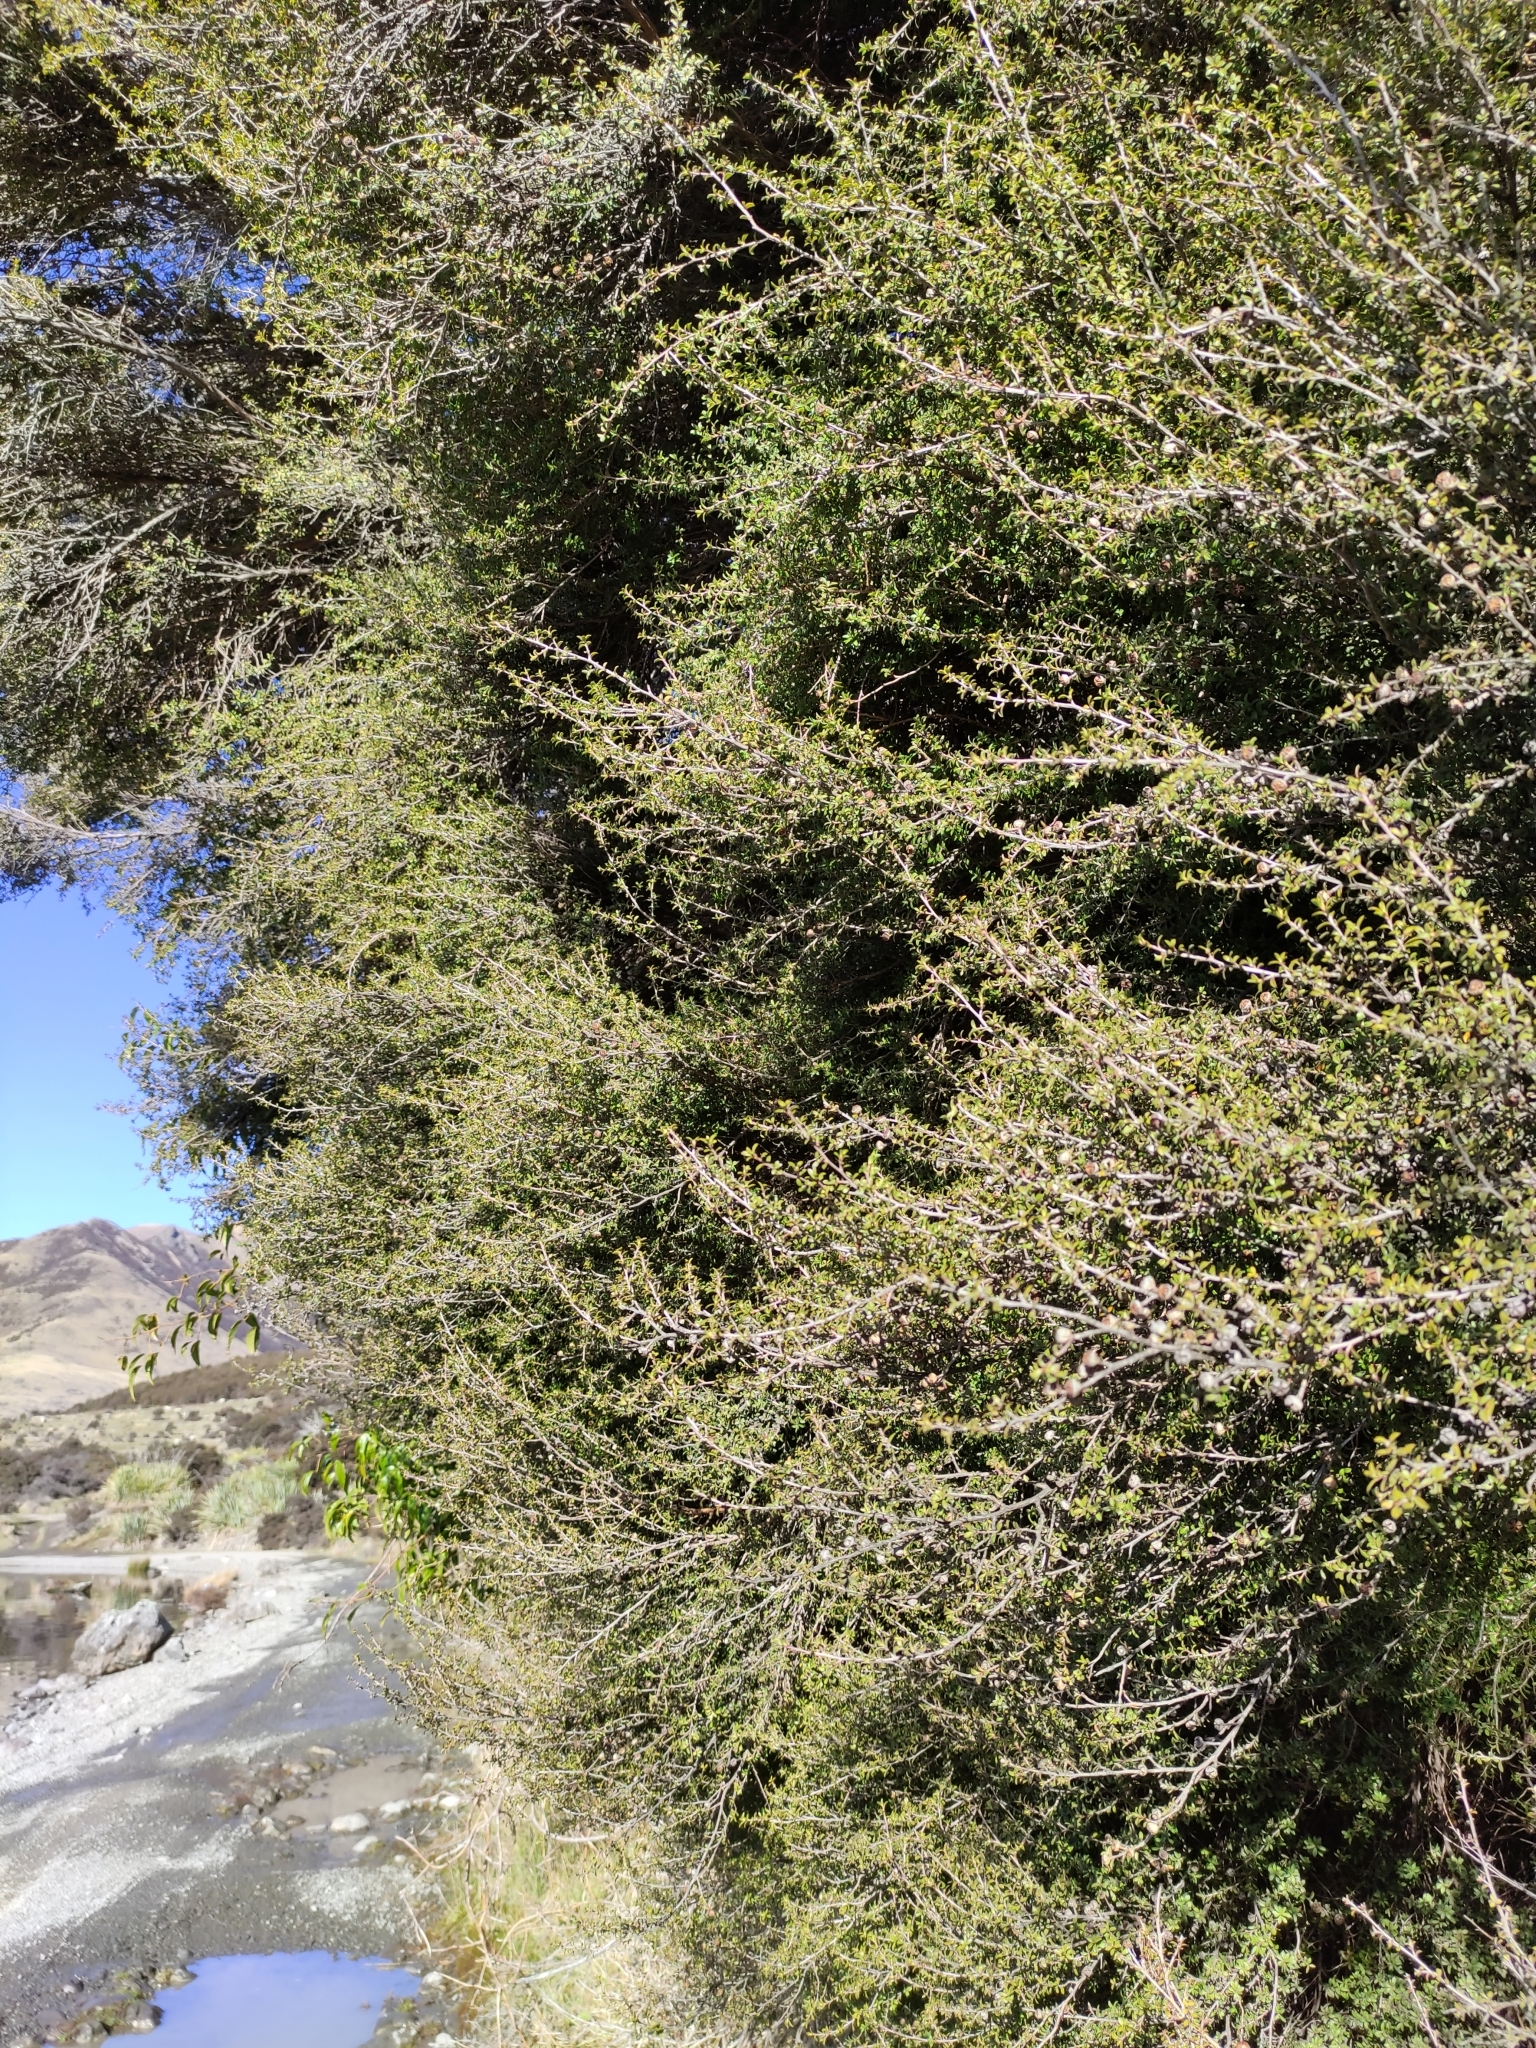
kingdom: Plantae
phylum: Tracheophyta
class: Magnoliopsida
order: Myrtales
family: Myrtaceae
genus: Leptospermum
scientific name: Leptospermum scoparium
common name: Broom tea-tree
